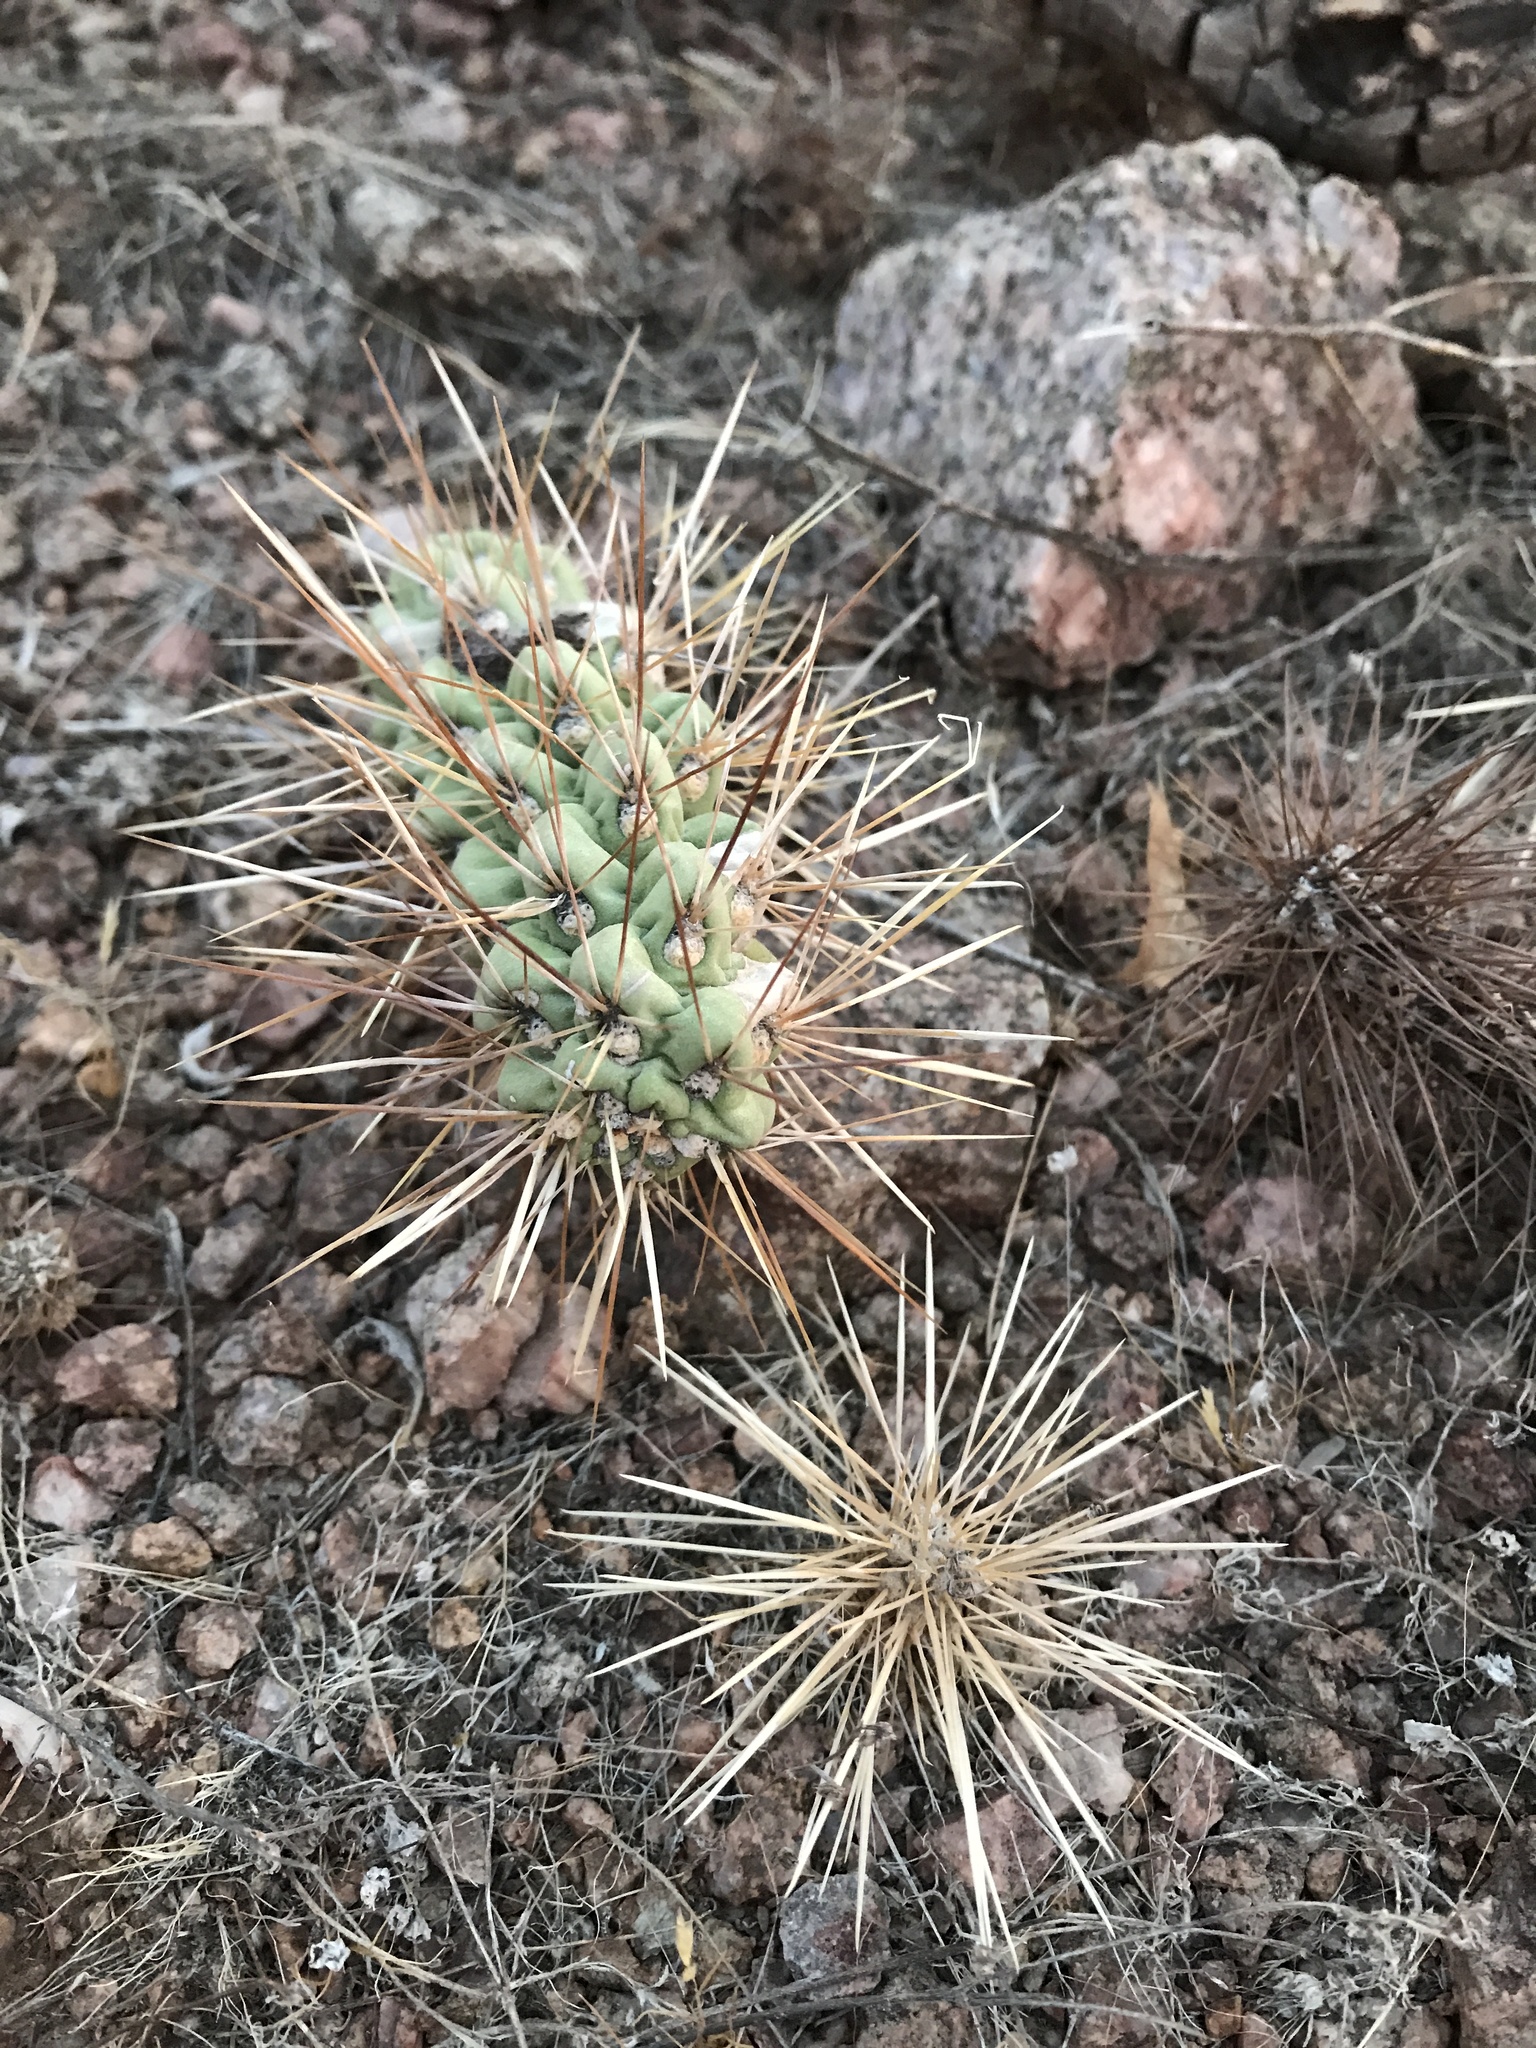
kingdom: Plantae
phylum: Tracheophyta
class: Magnoliopsida
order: Caryophyllales
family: Cactaceae
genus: Cylindropuntia
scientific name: Cylindropuntia fulgida
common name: Jumping cholla
